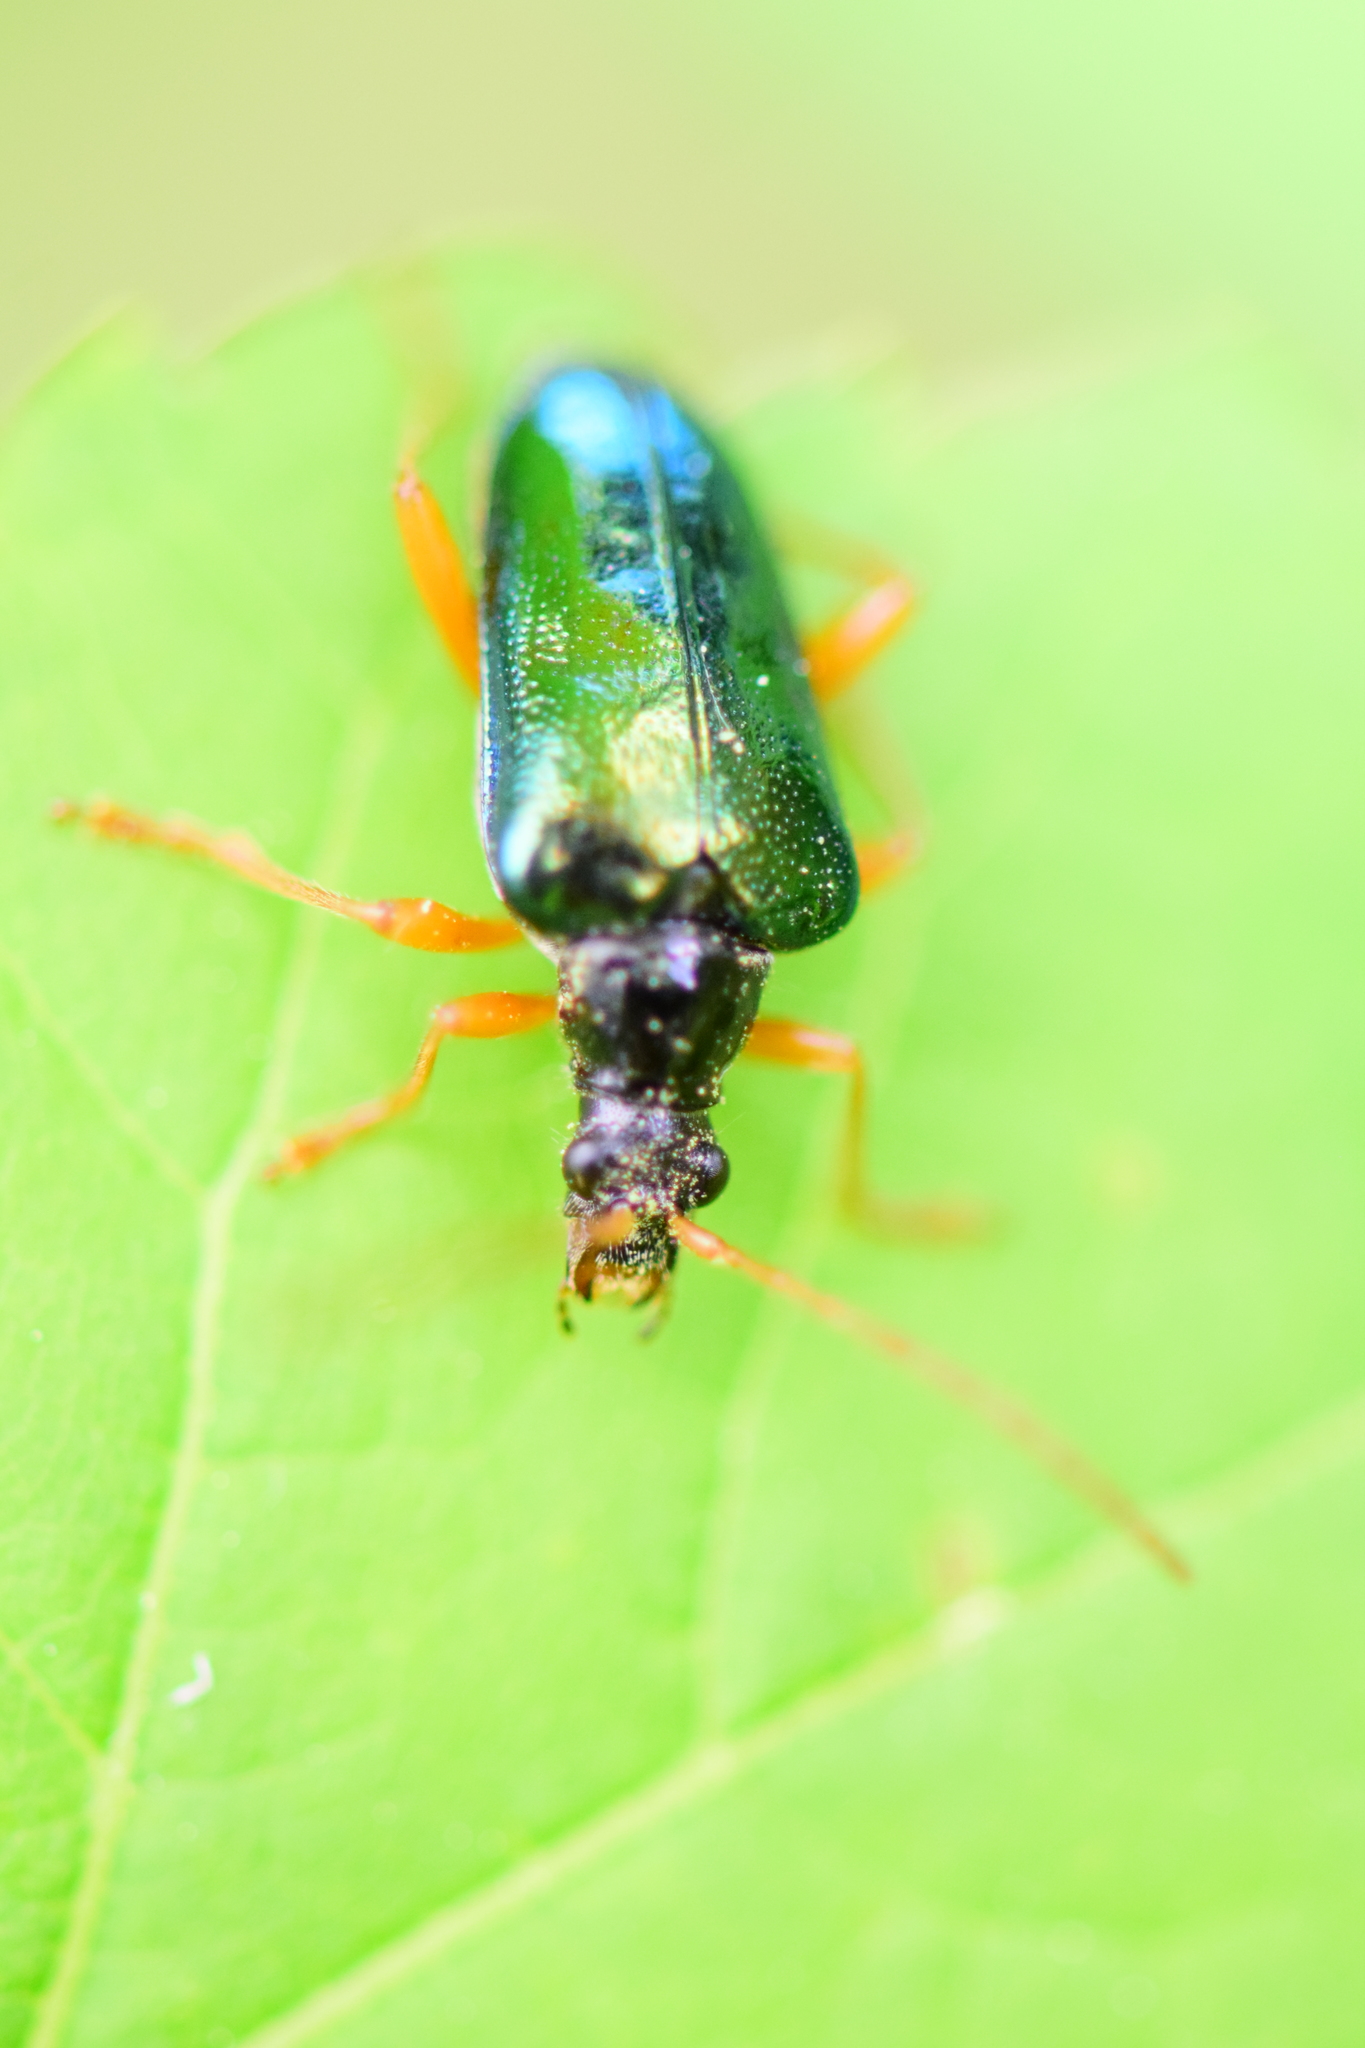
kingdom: Animalia
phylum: Arthropoda
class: Insecta
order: Coleoptera
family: Cerambycidae
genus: Gaurotes
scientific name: Gaurotes cyanipennis
